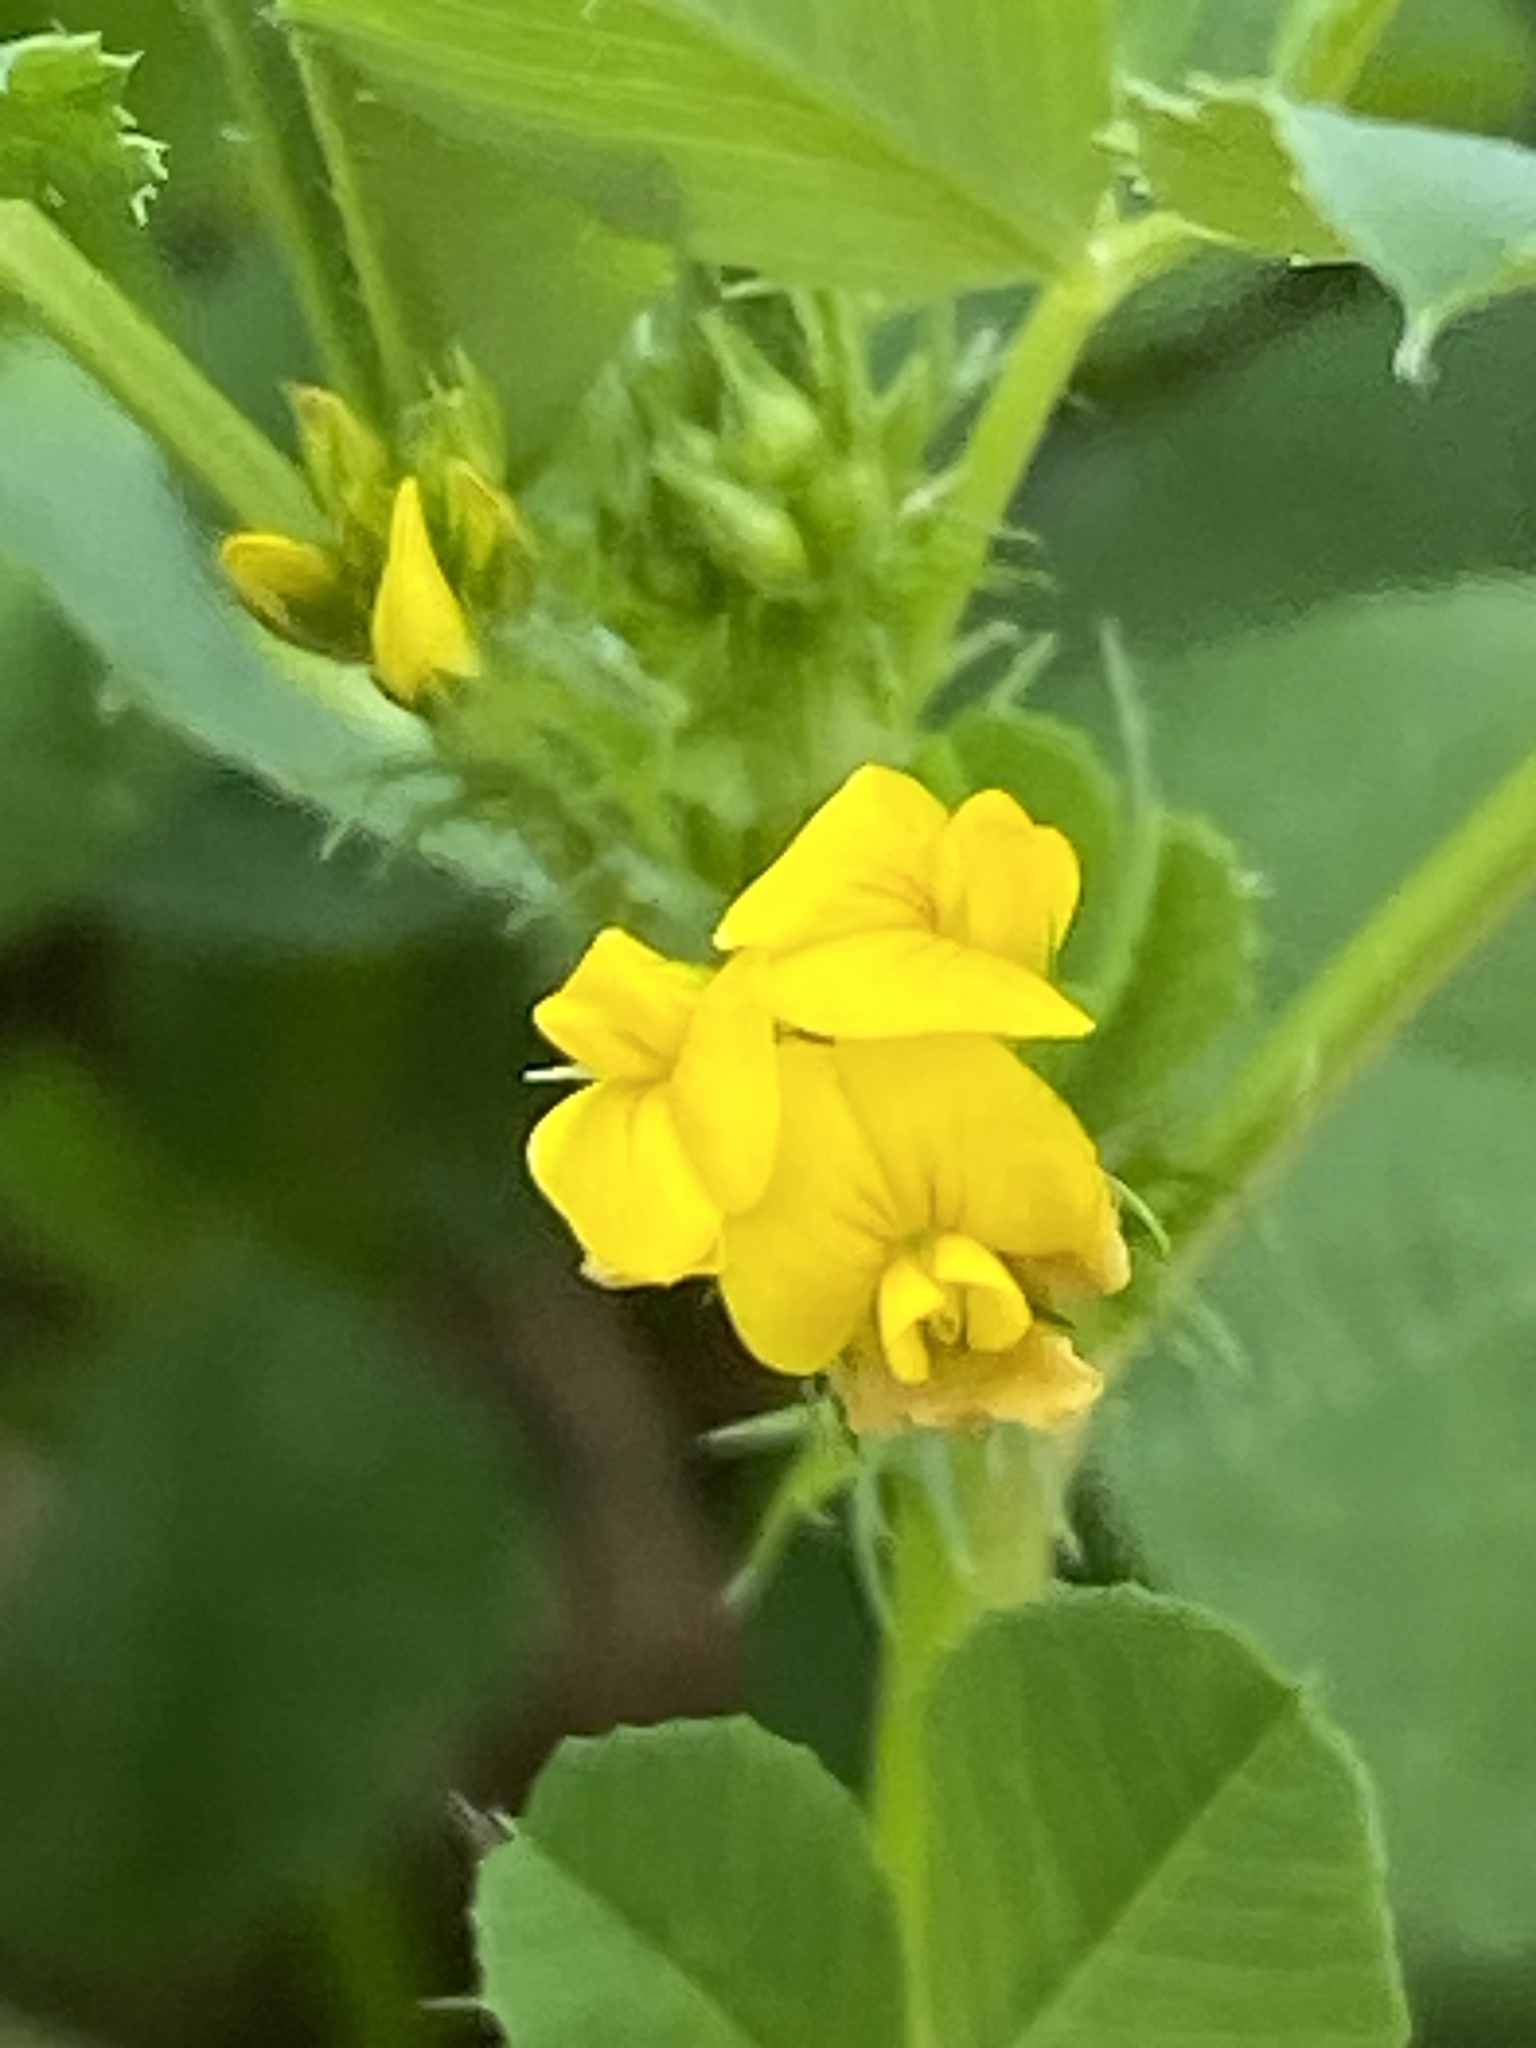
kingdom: Plantae
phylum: Tracheophyta
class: Magnoliopsida
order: Fabales
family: Fabaceae
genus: Medicago
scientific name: Medicago polymorpha
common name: Burclover
